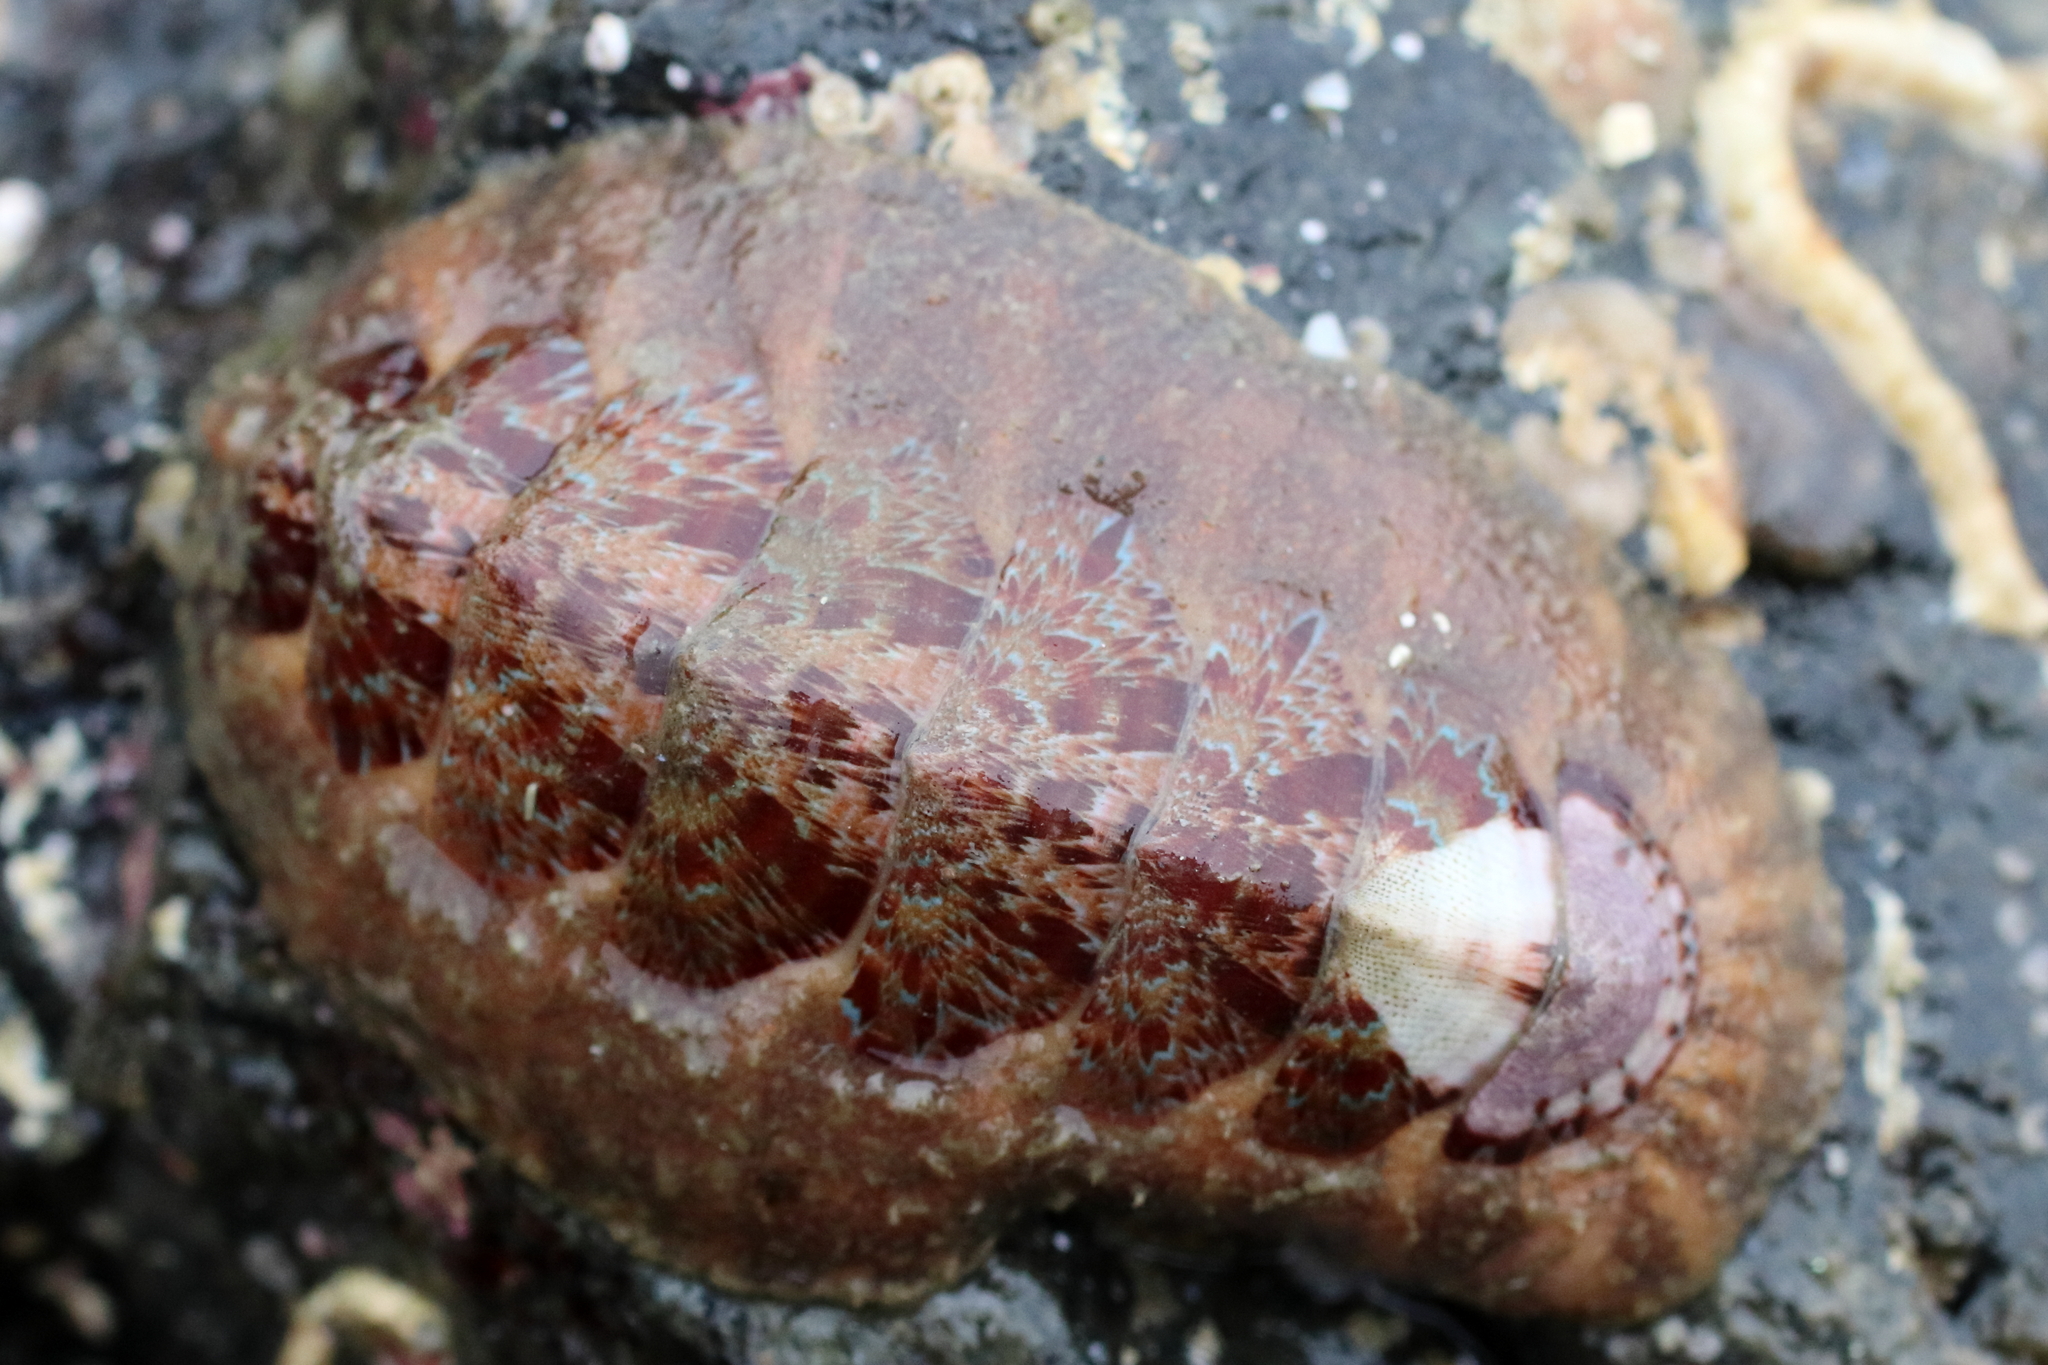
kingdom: Animalia
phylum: Mollusca
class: Polyplacophora
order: Chitonida
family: Mopaliidae
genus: Mopalia
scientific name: Mopalia swanii
